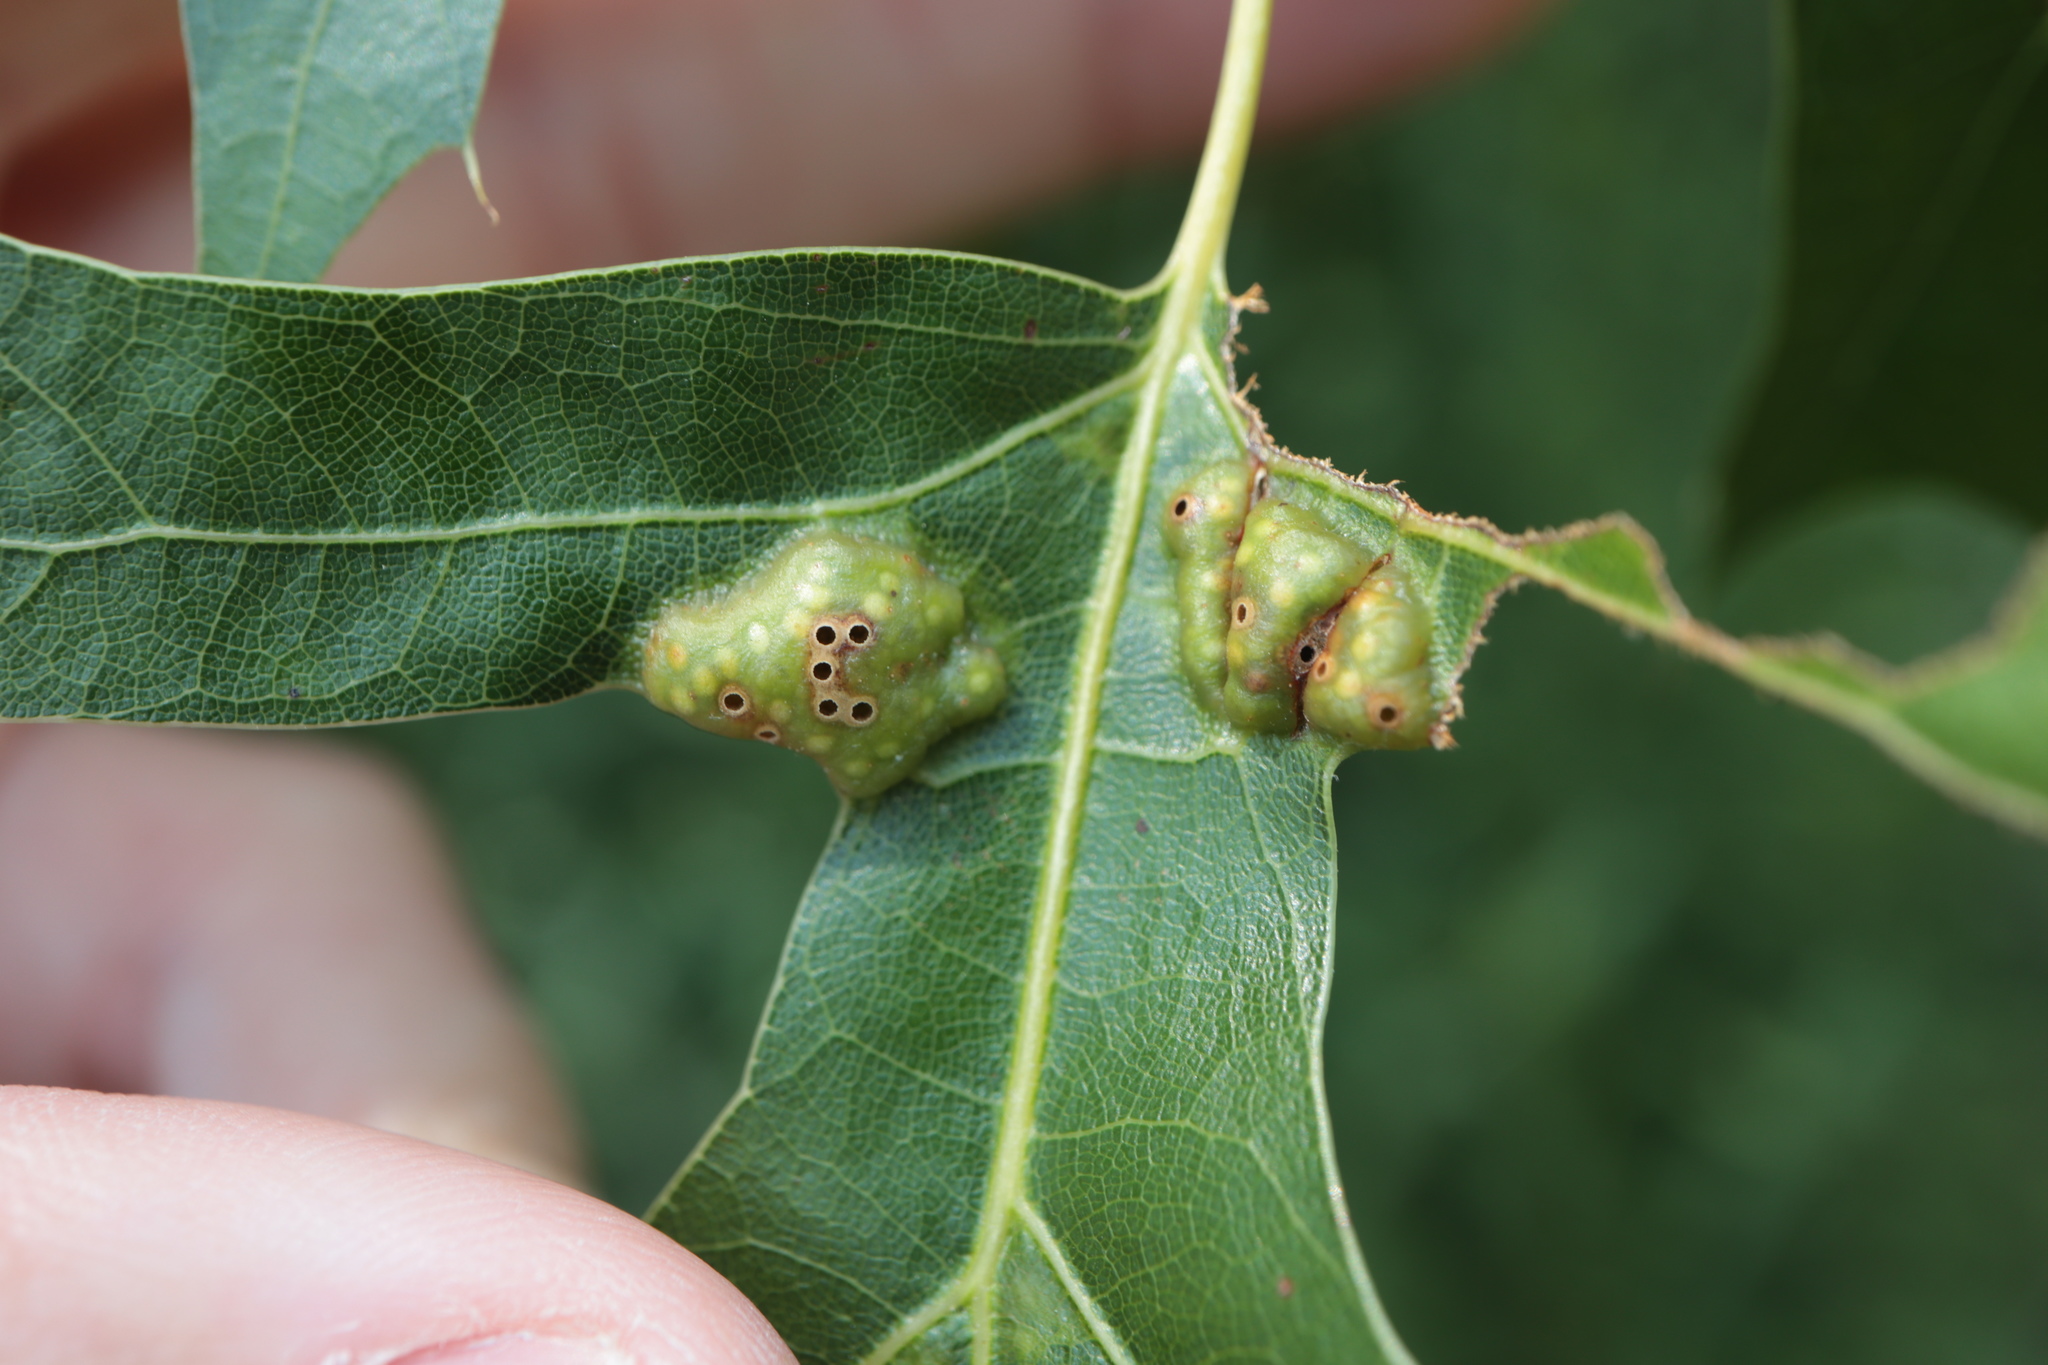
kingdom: Animalia
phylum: Arthropoda
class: Insecta
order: Hymenoptera
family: Cynipidae
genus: Callirhytis
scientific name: Callirhytis
